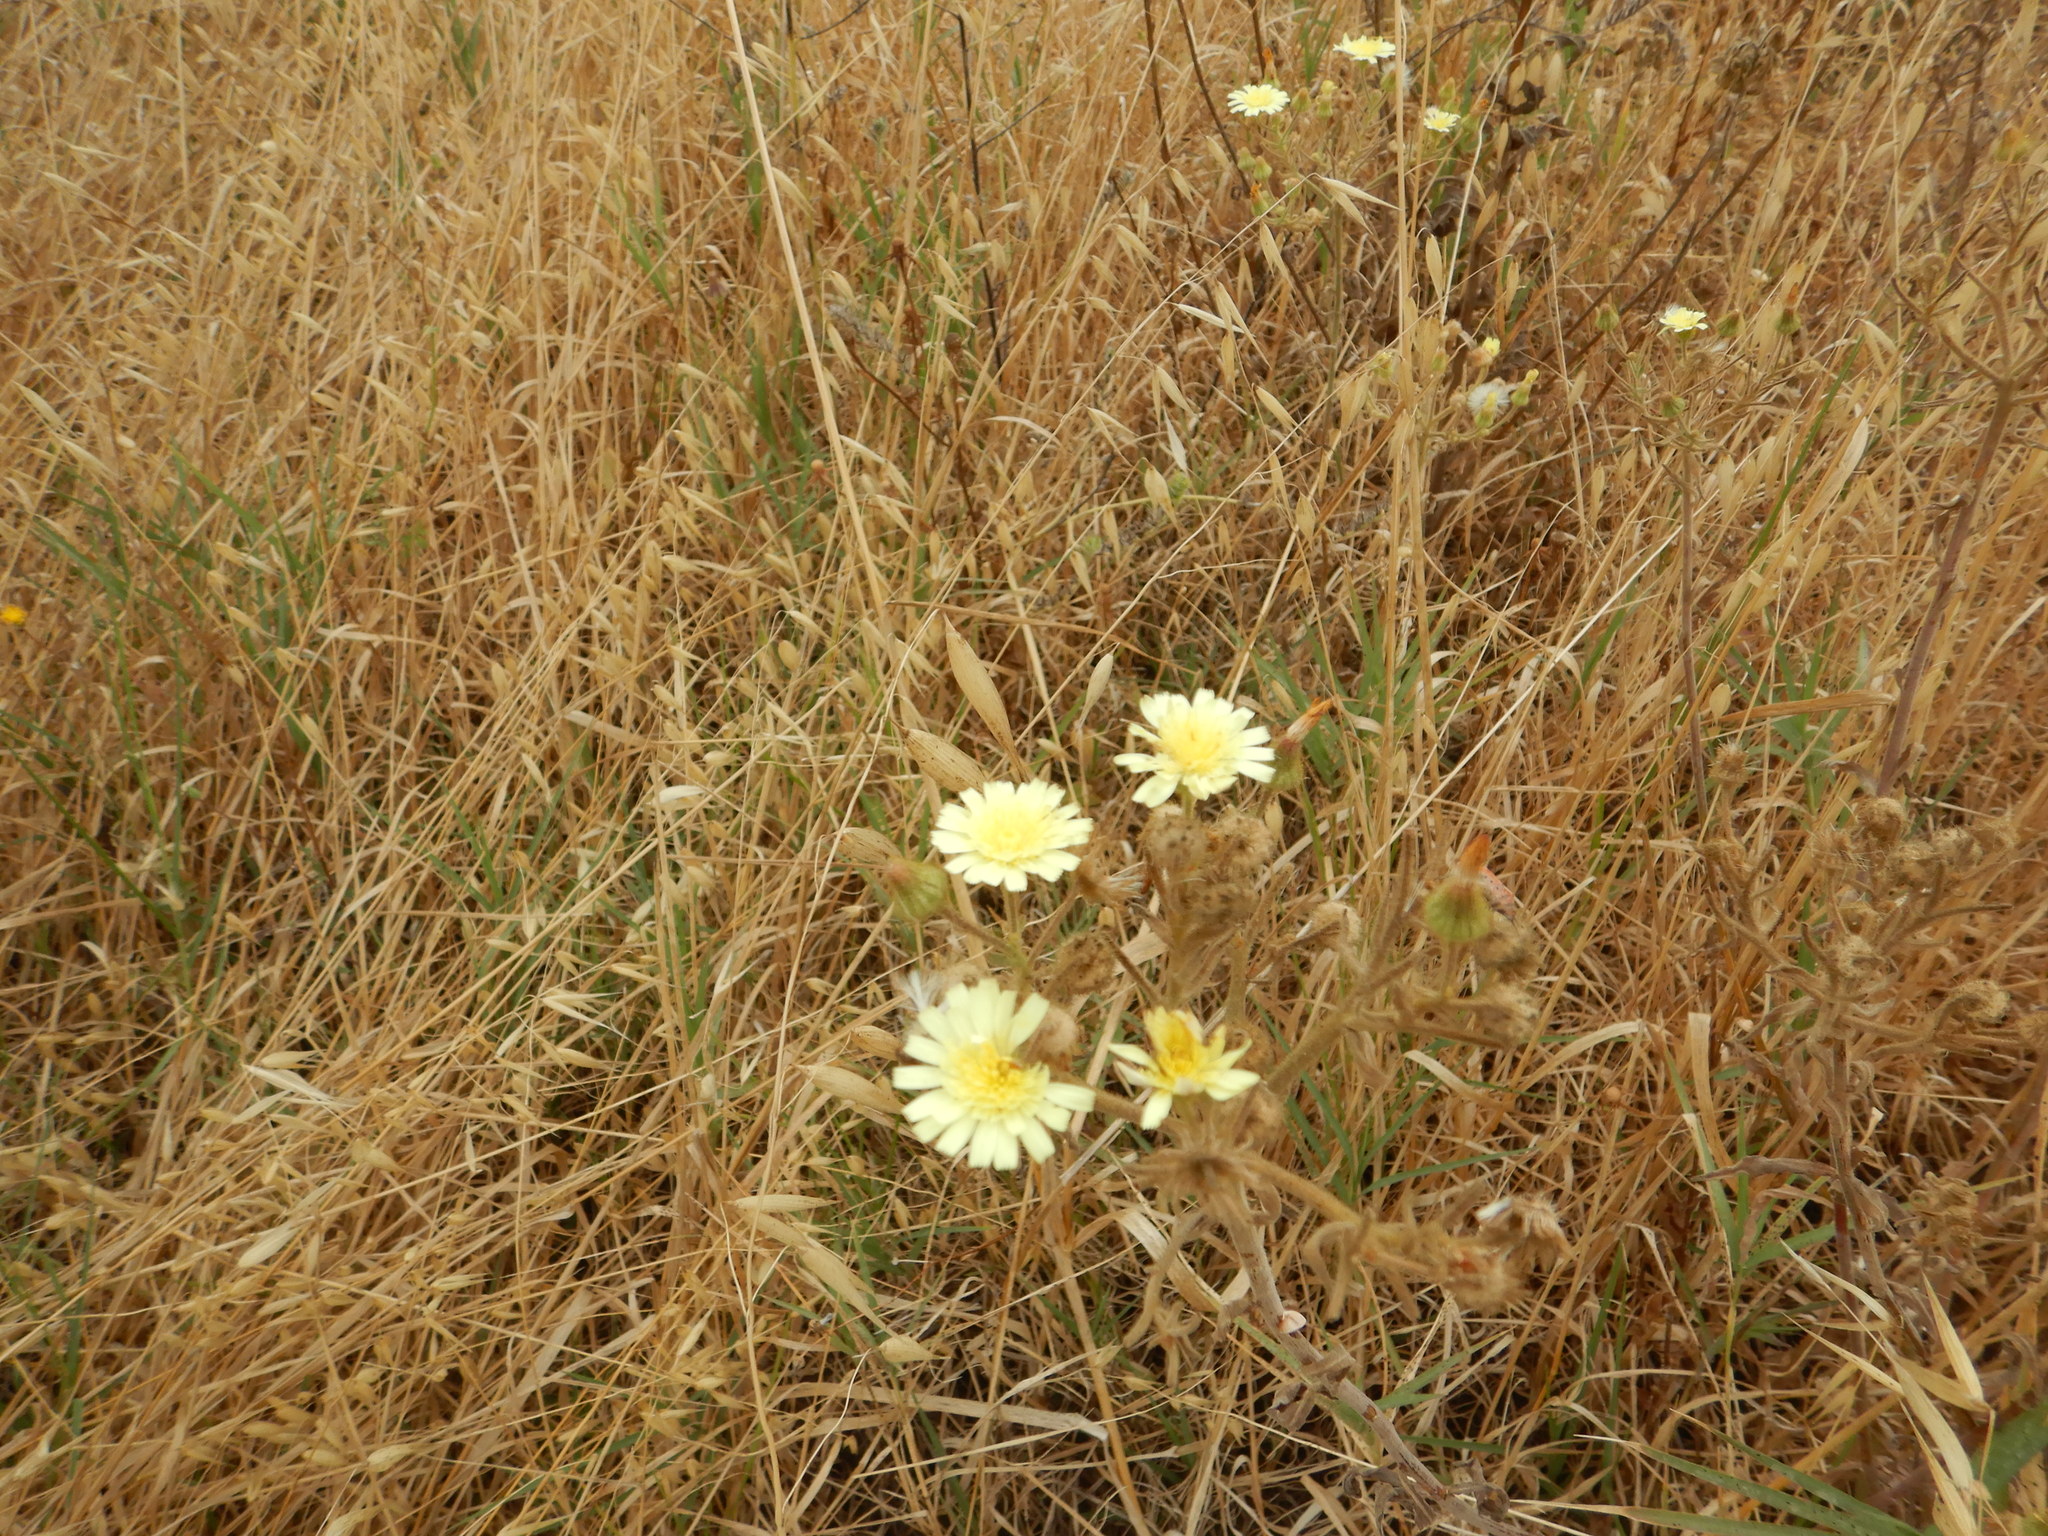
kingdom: Plantae
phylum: Tracheophyta
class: Magnoliopsida
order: Asterales
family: Asteraceae
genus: Andryala
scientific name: Andryala integrifolia
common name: Common andryala
